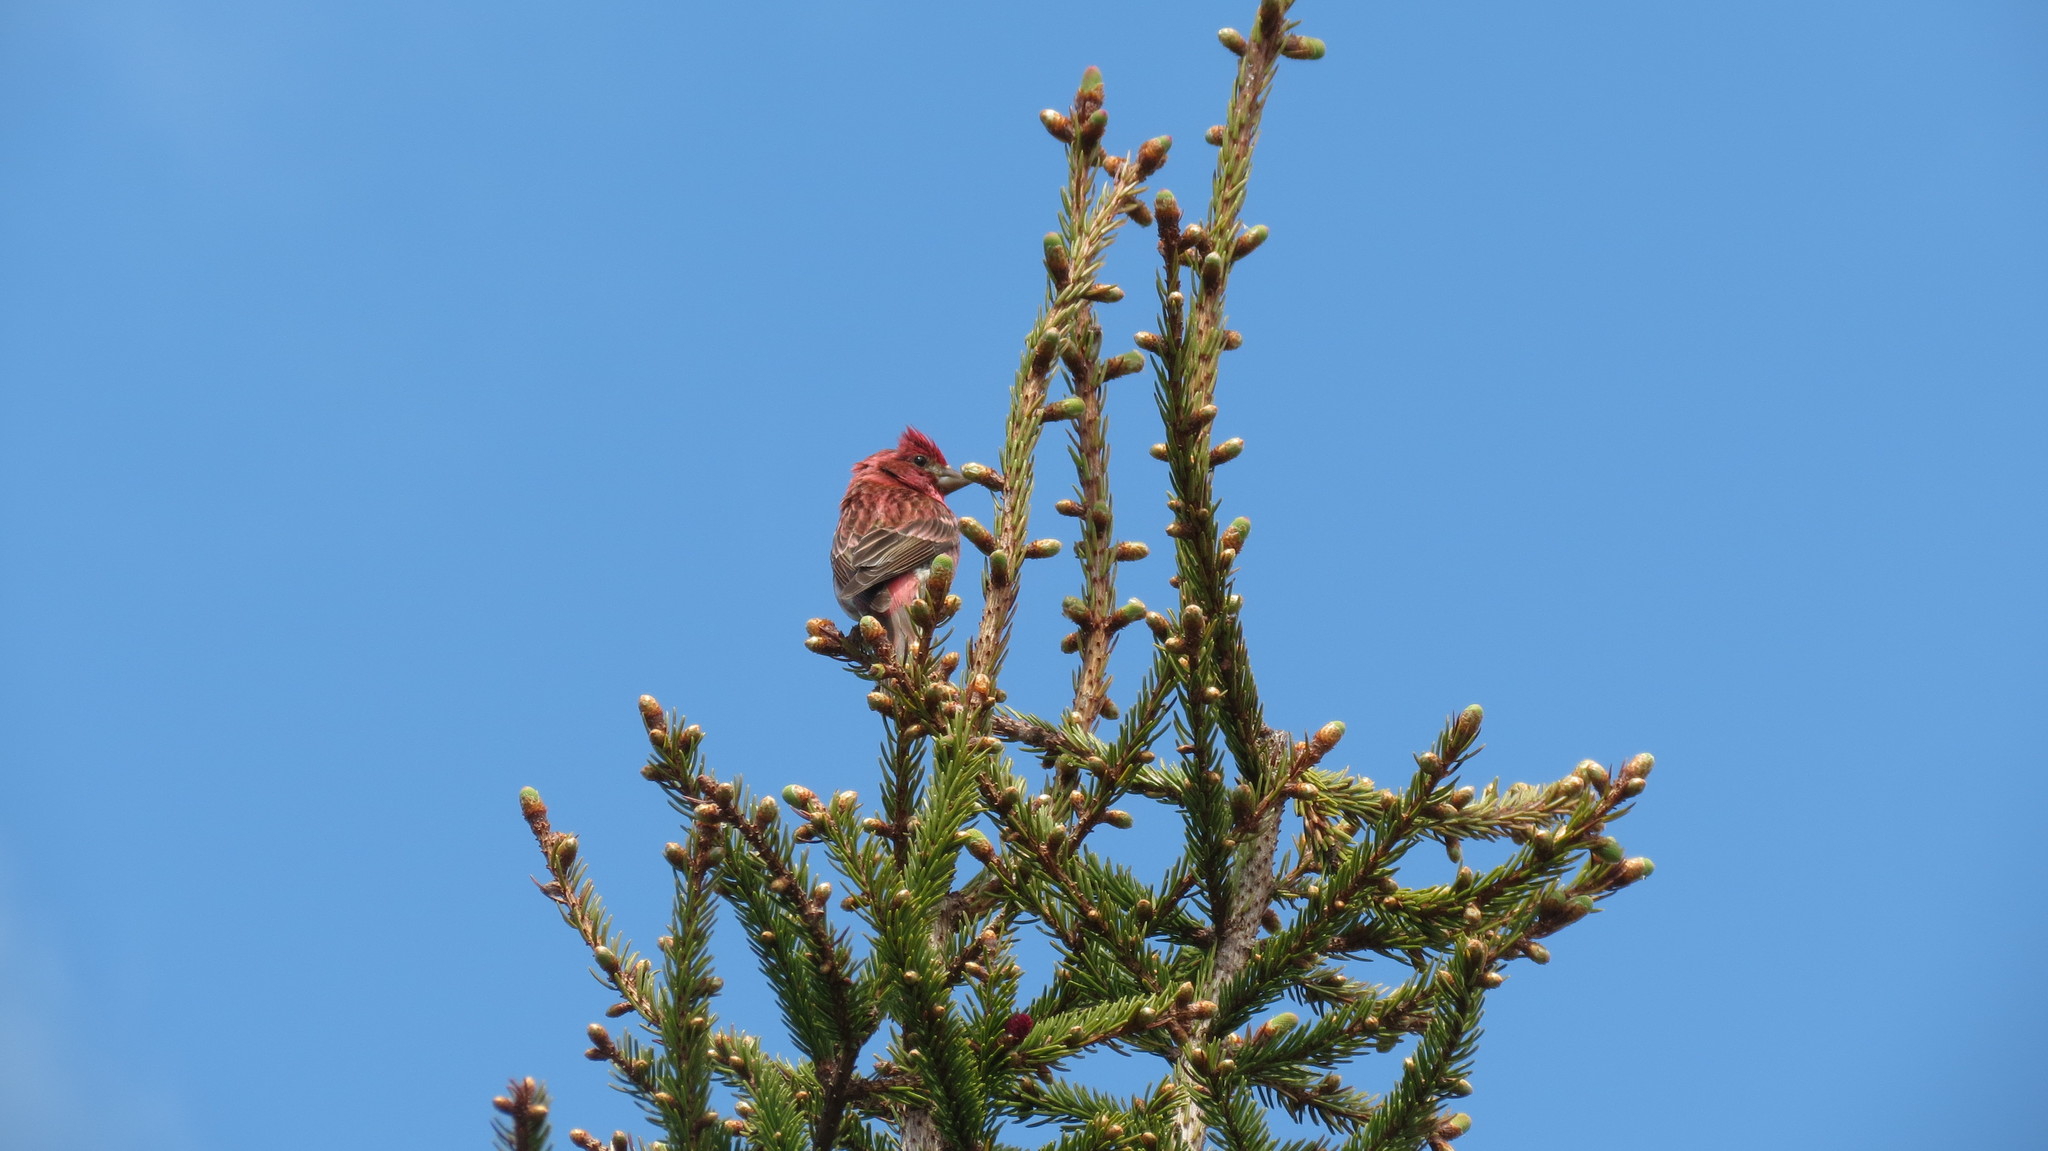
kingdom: Animalia
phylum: Chordata
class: Aves
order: Passeriformes
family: Fringillidae
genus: Haemorhous
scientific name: Haemorhous purpureus
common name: Purple finch
